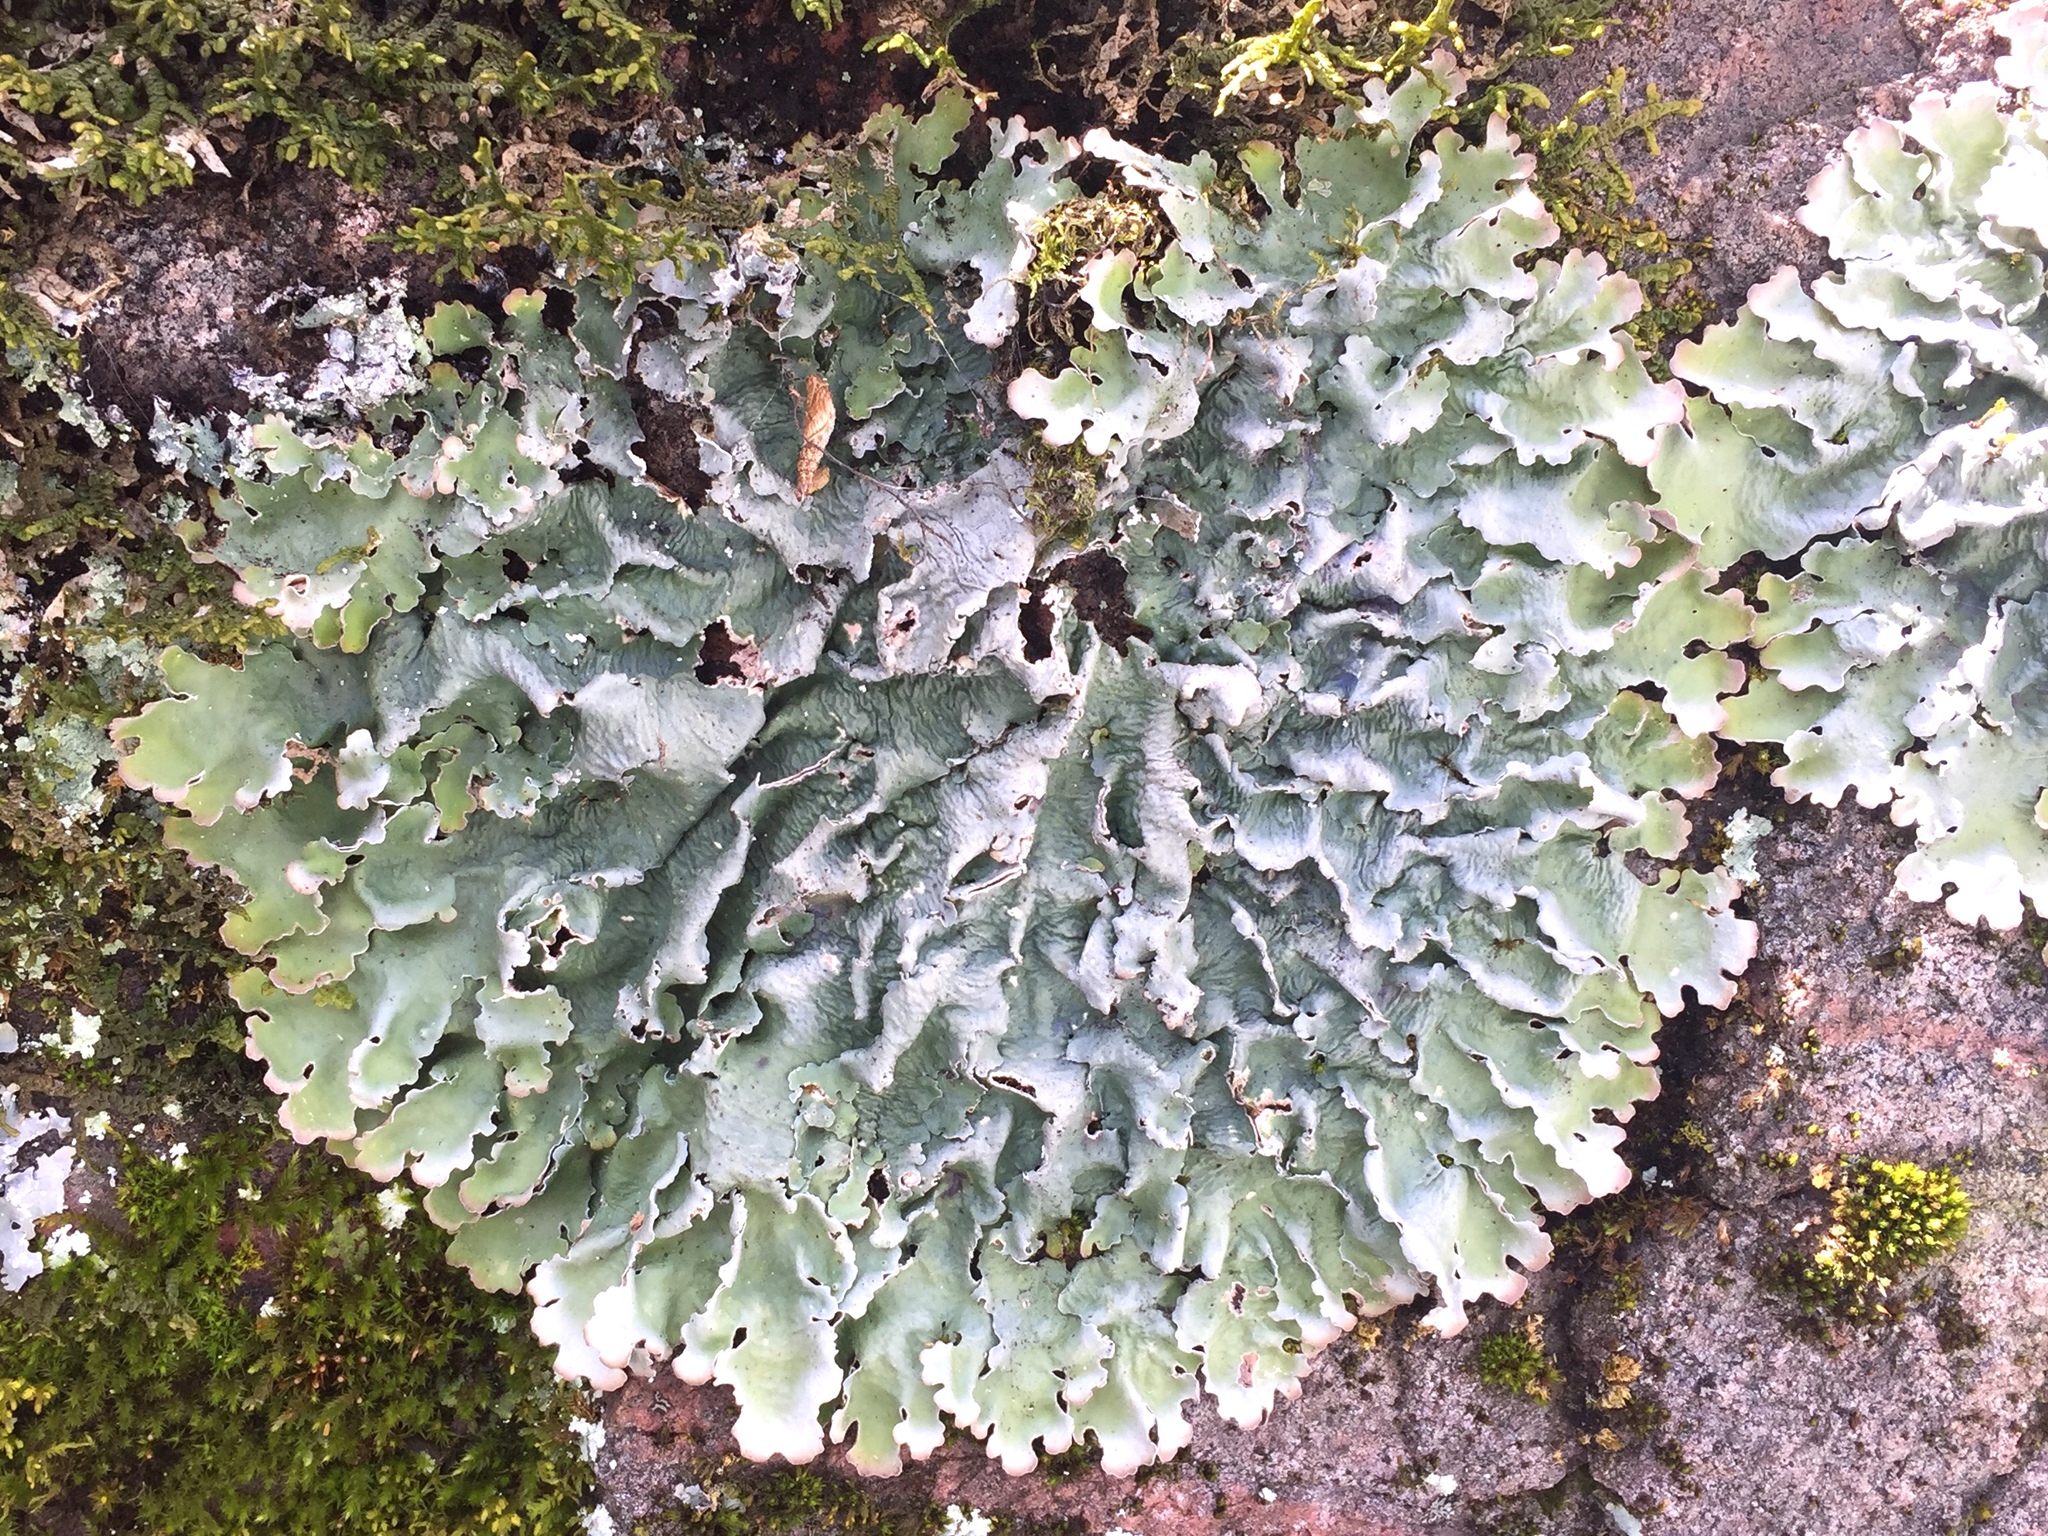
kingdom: Fungi
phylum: Ascomycota
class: Lecanoromycetes
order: Peltigerales
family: Lobariaceae
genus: Ricasolia
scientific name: Ricasolia quercizans
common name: Smooth lungwort
